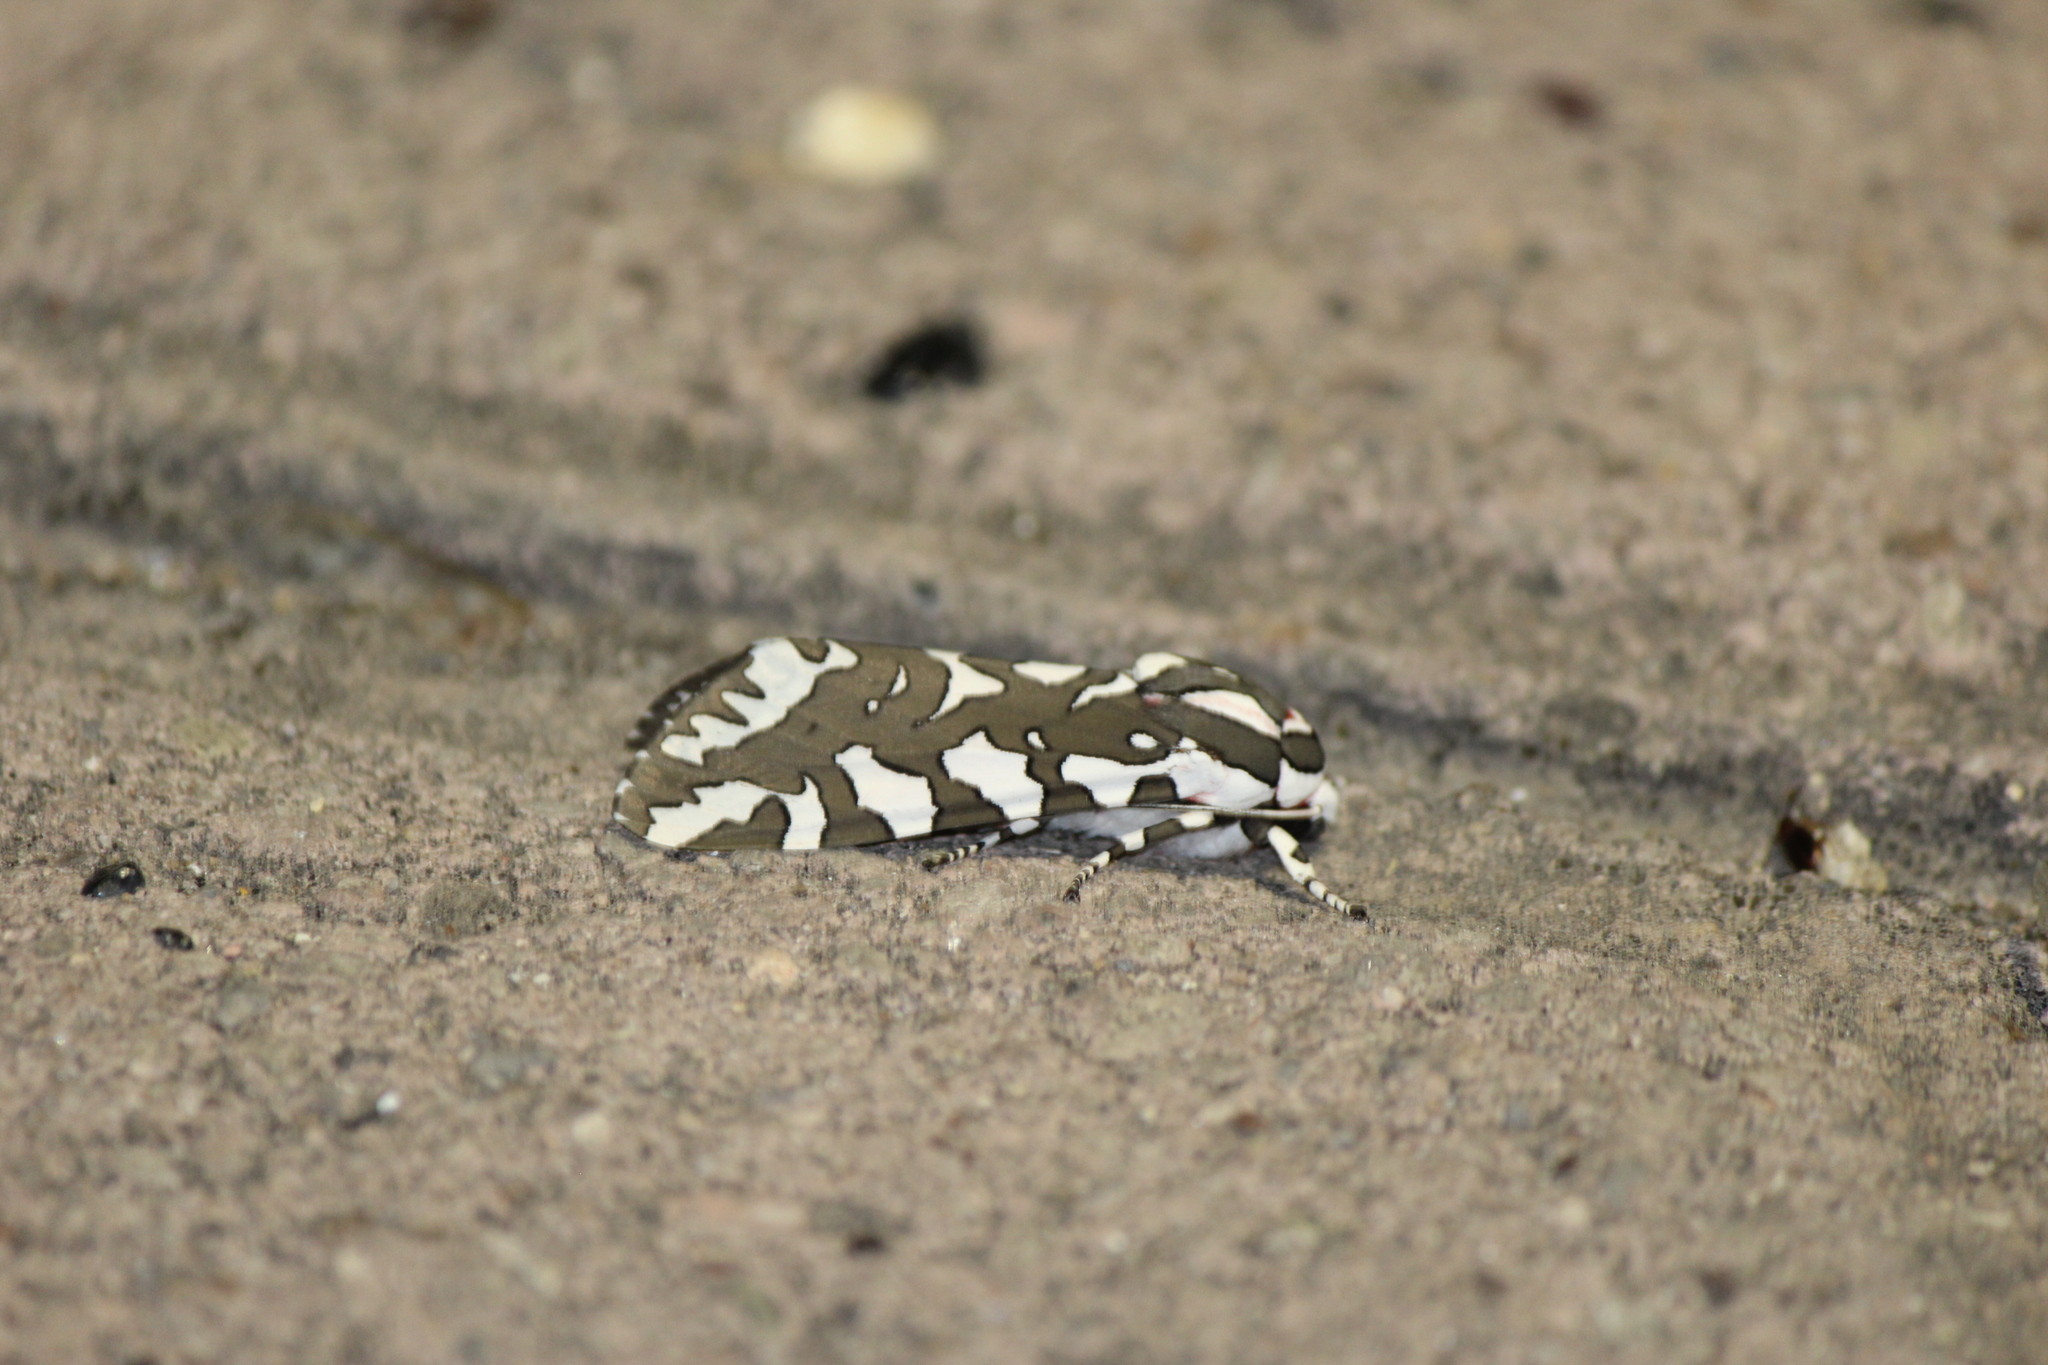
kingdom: Animalia
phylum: Arthropoda
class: Insecta
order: Lepidoptera
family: Erebidae
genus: Arachnis
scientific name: Arachnis dilecta
